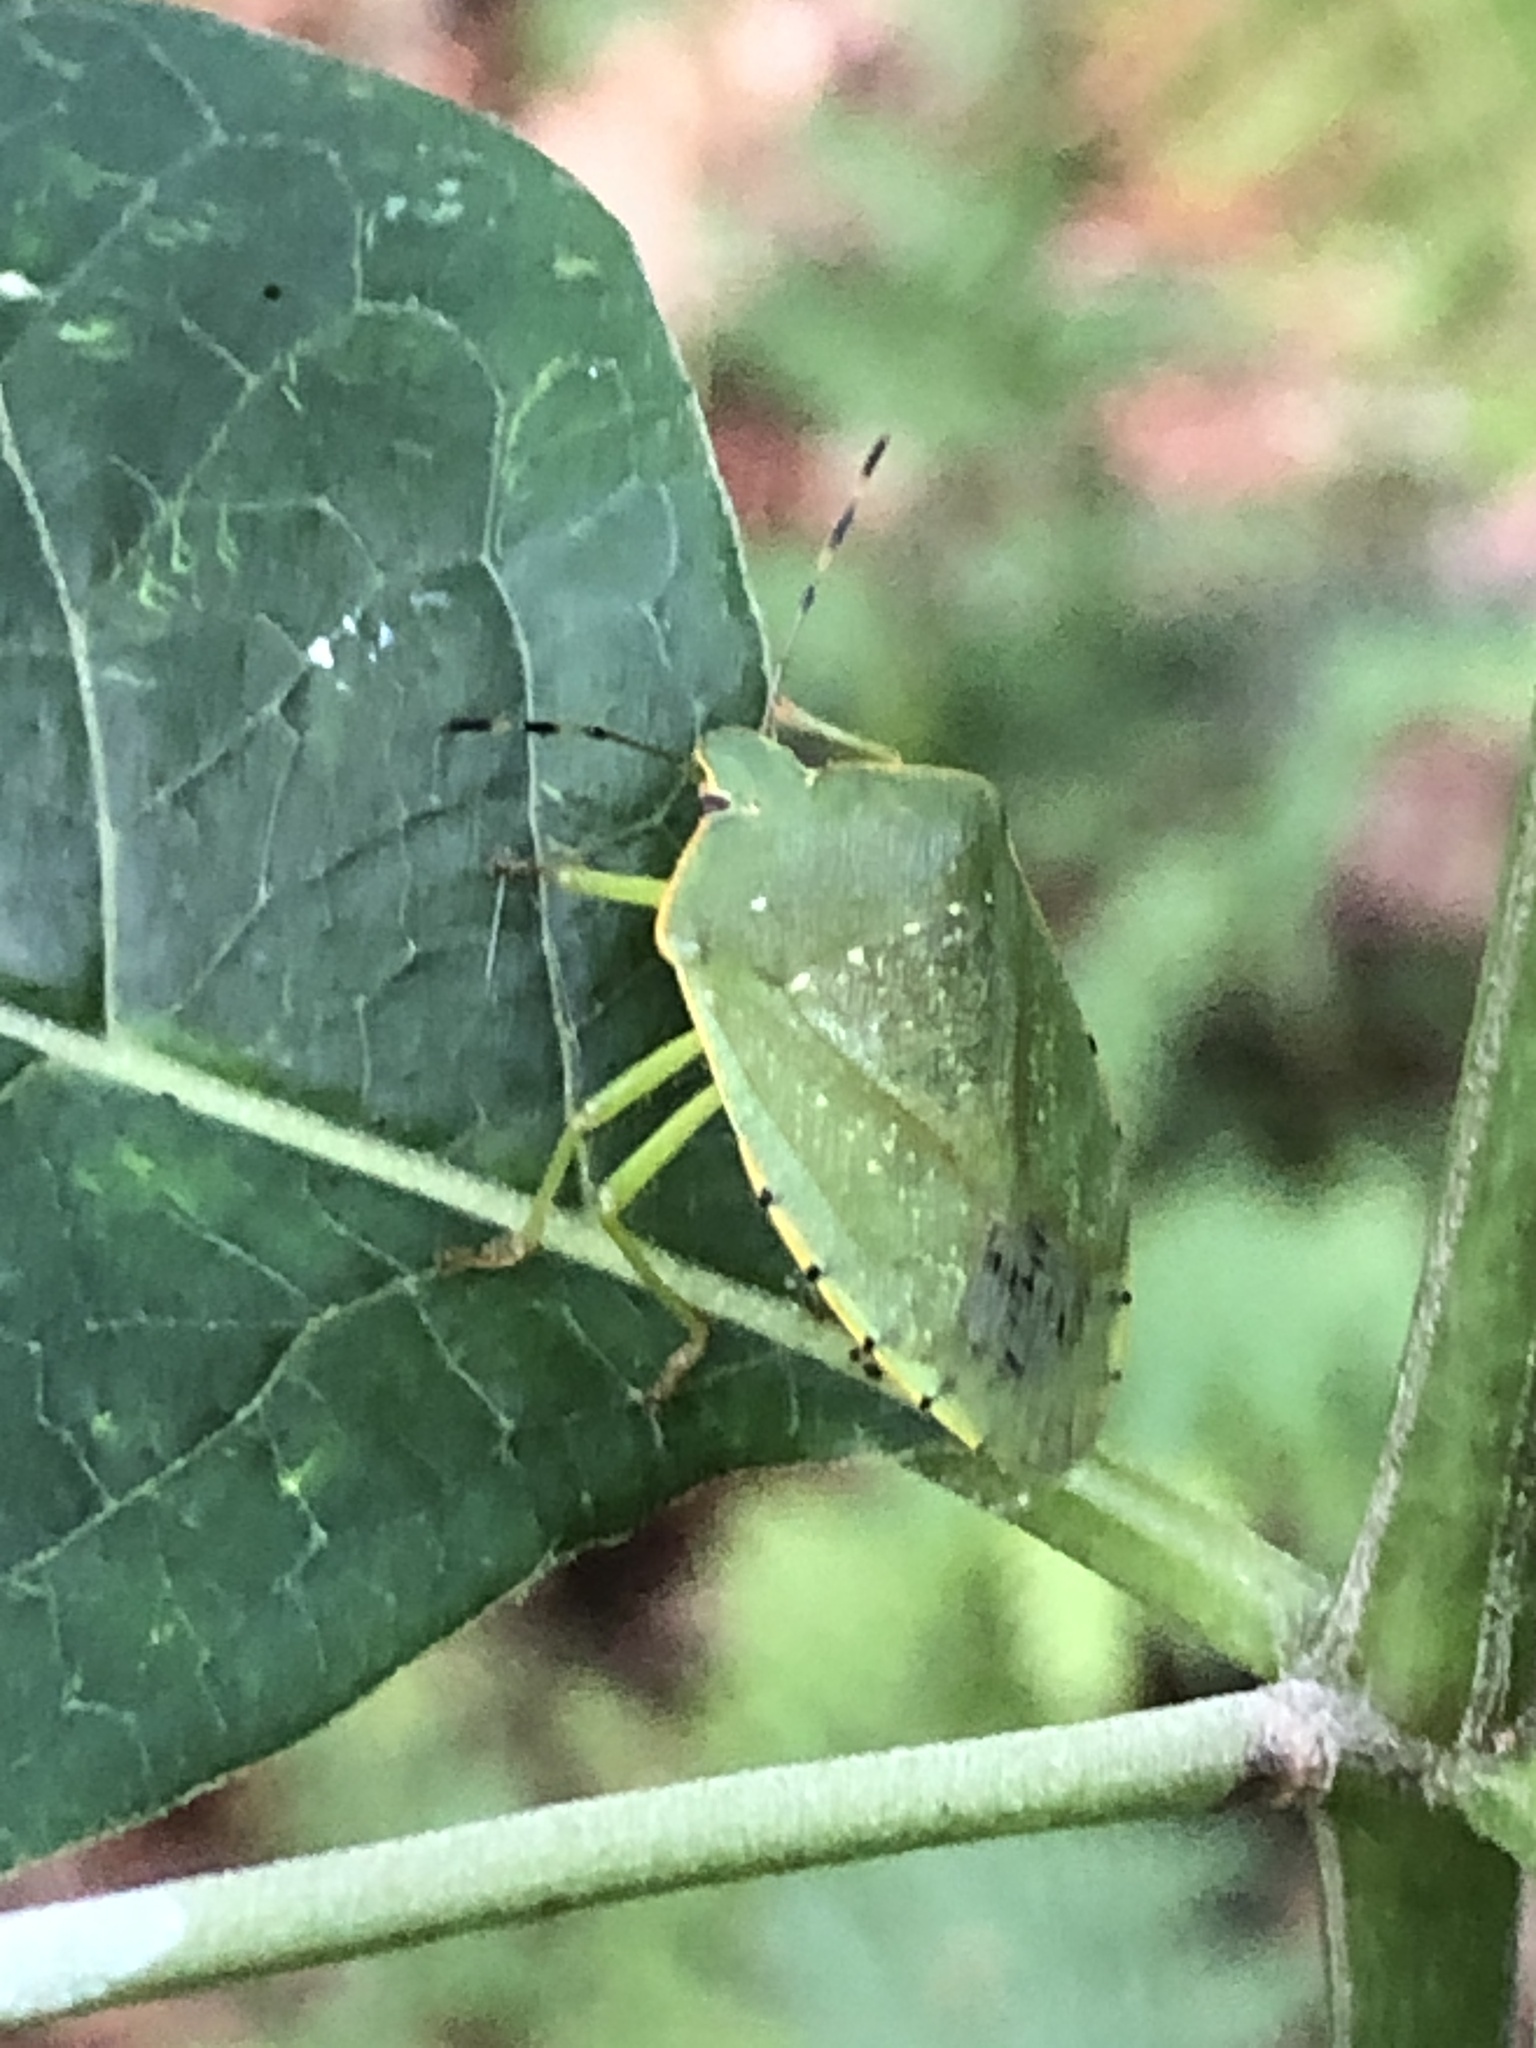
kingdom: Animalia
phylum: Arthropoda
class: Insecta
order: Hemiptera
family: Pentatomidae
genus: Chinavia
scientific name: Chinavia hilaris
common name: Green stink bug
